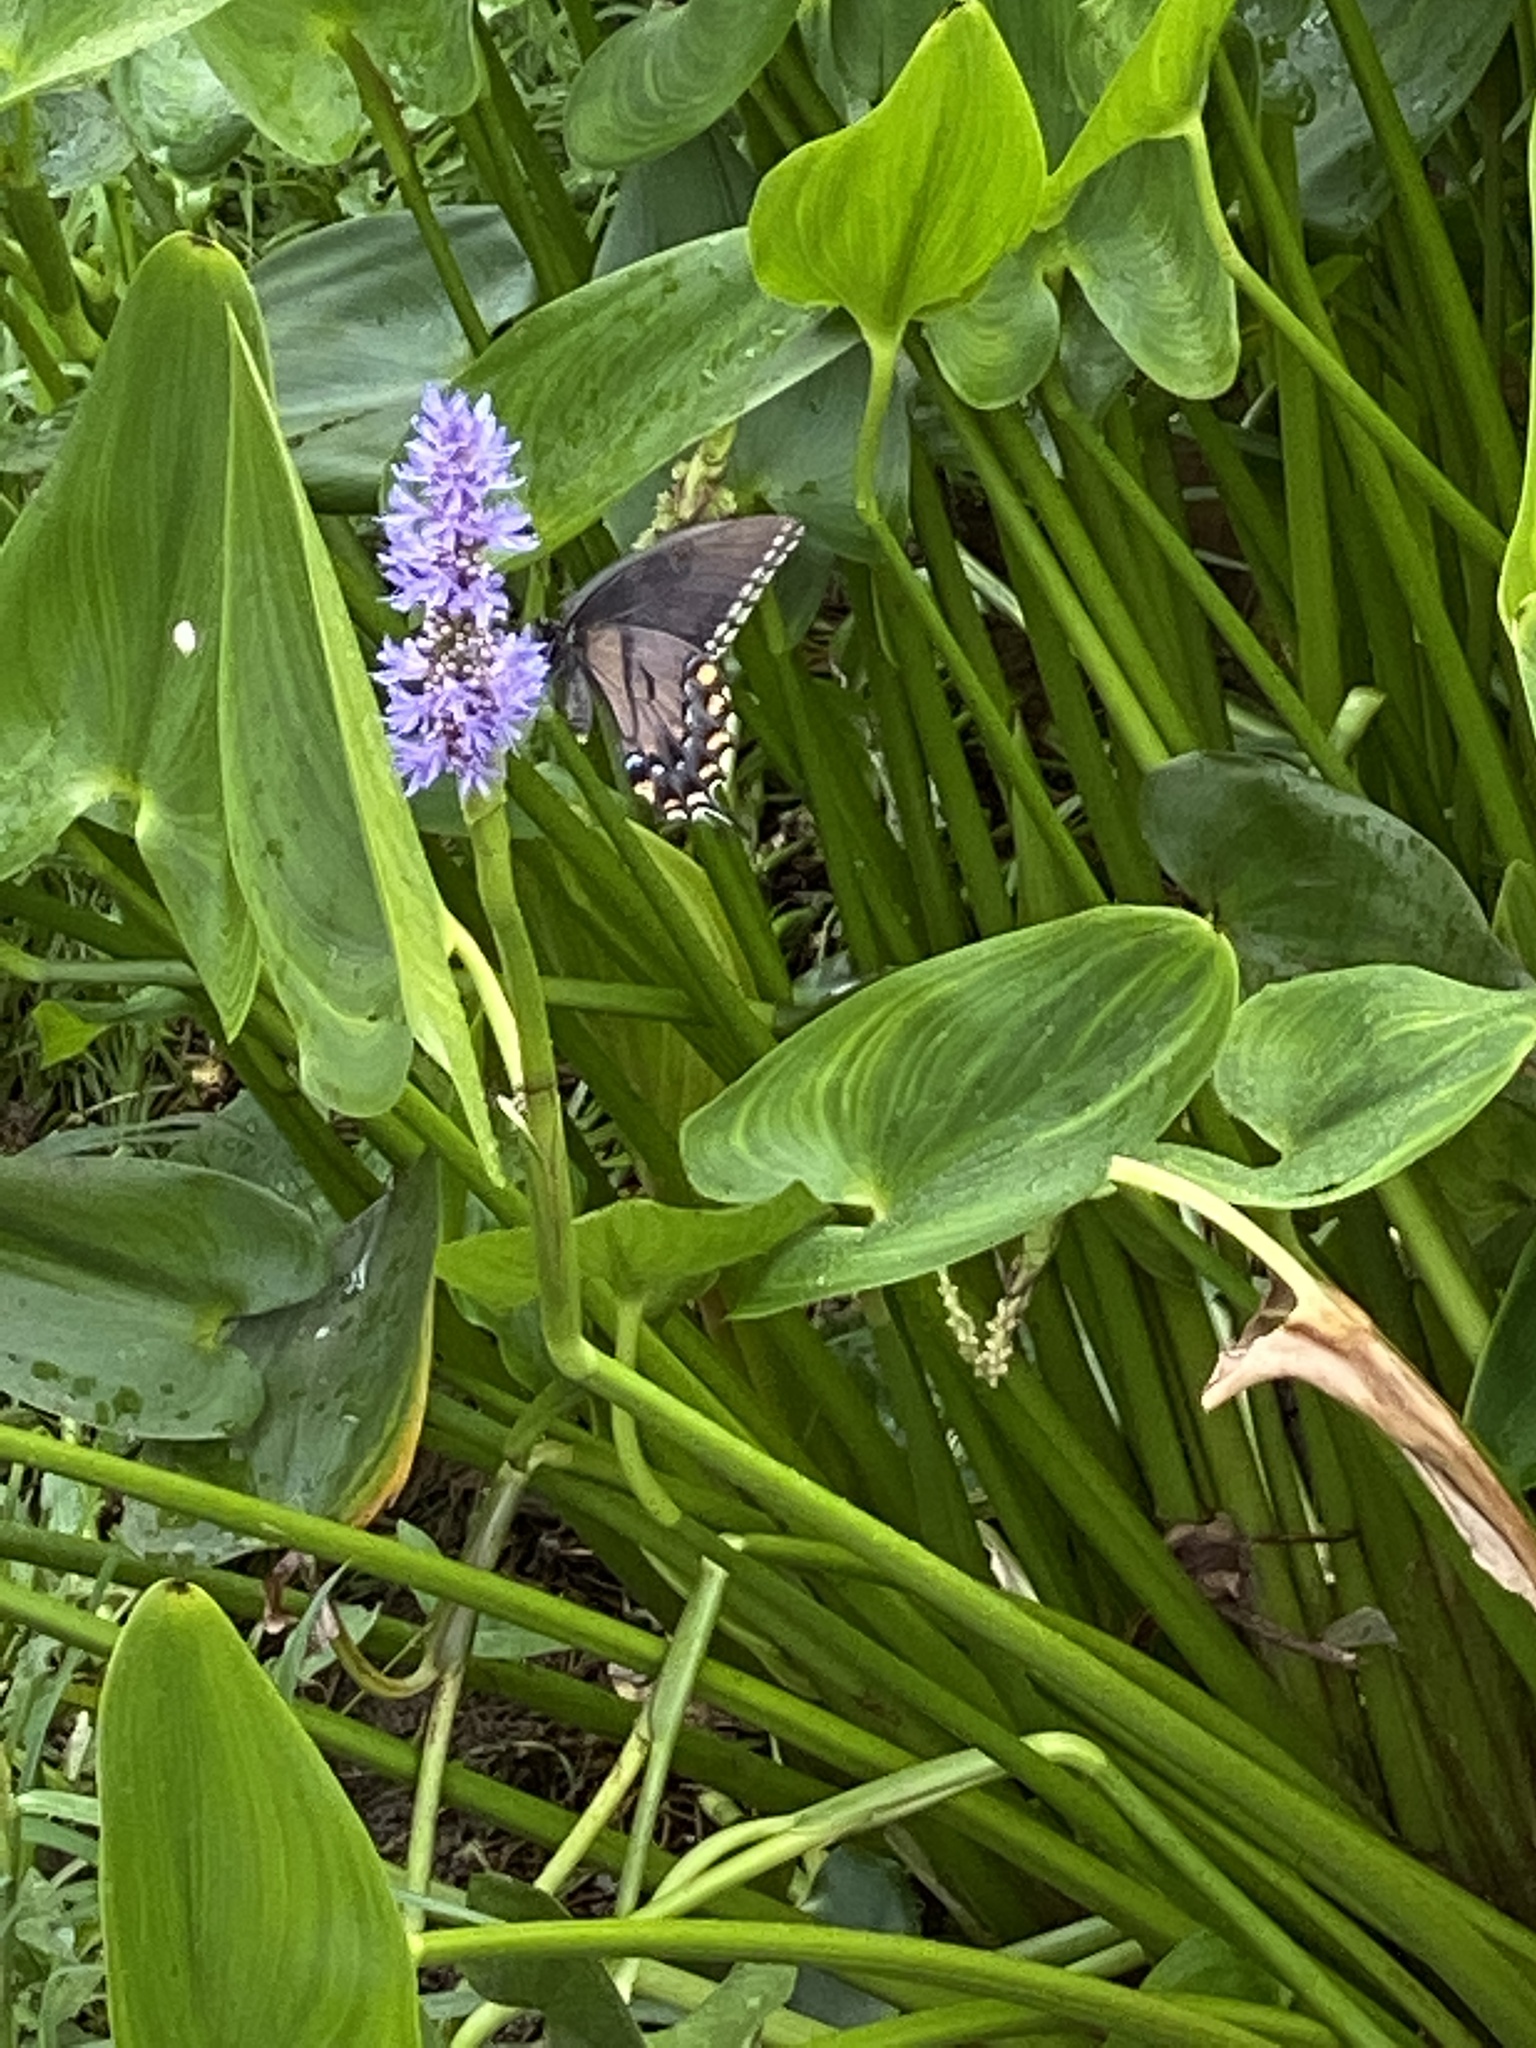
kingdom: Animalia
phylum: Arthropoda
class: Insecta
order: Lepidoptera
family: Papilionidae
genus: Papilio
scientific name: Papilio glaucus
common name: Tiger swallowtail
